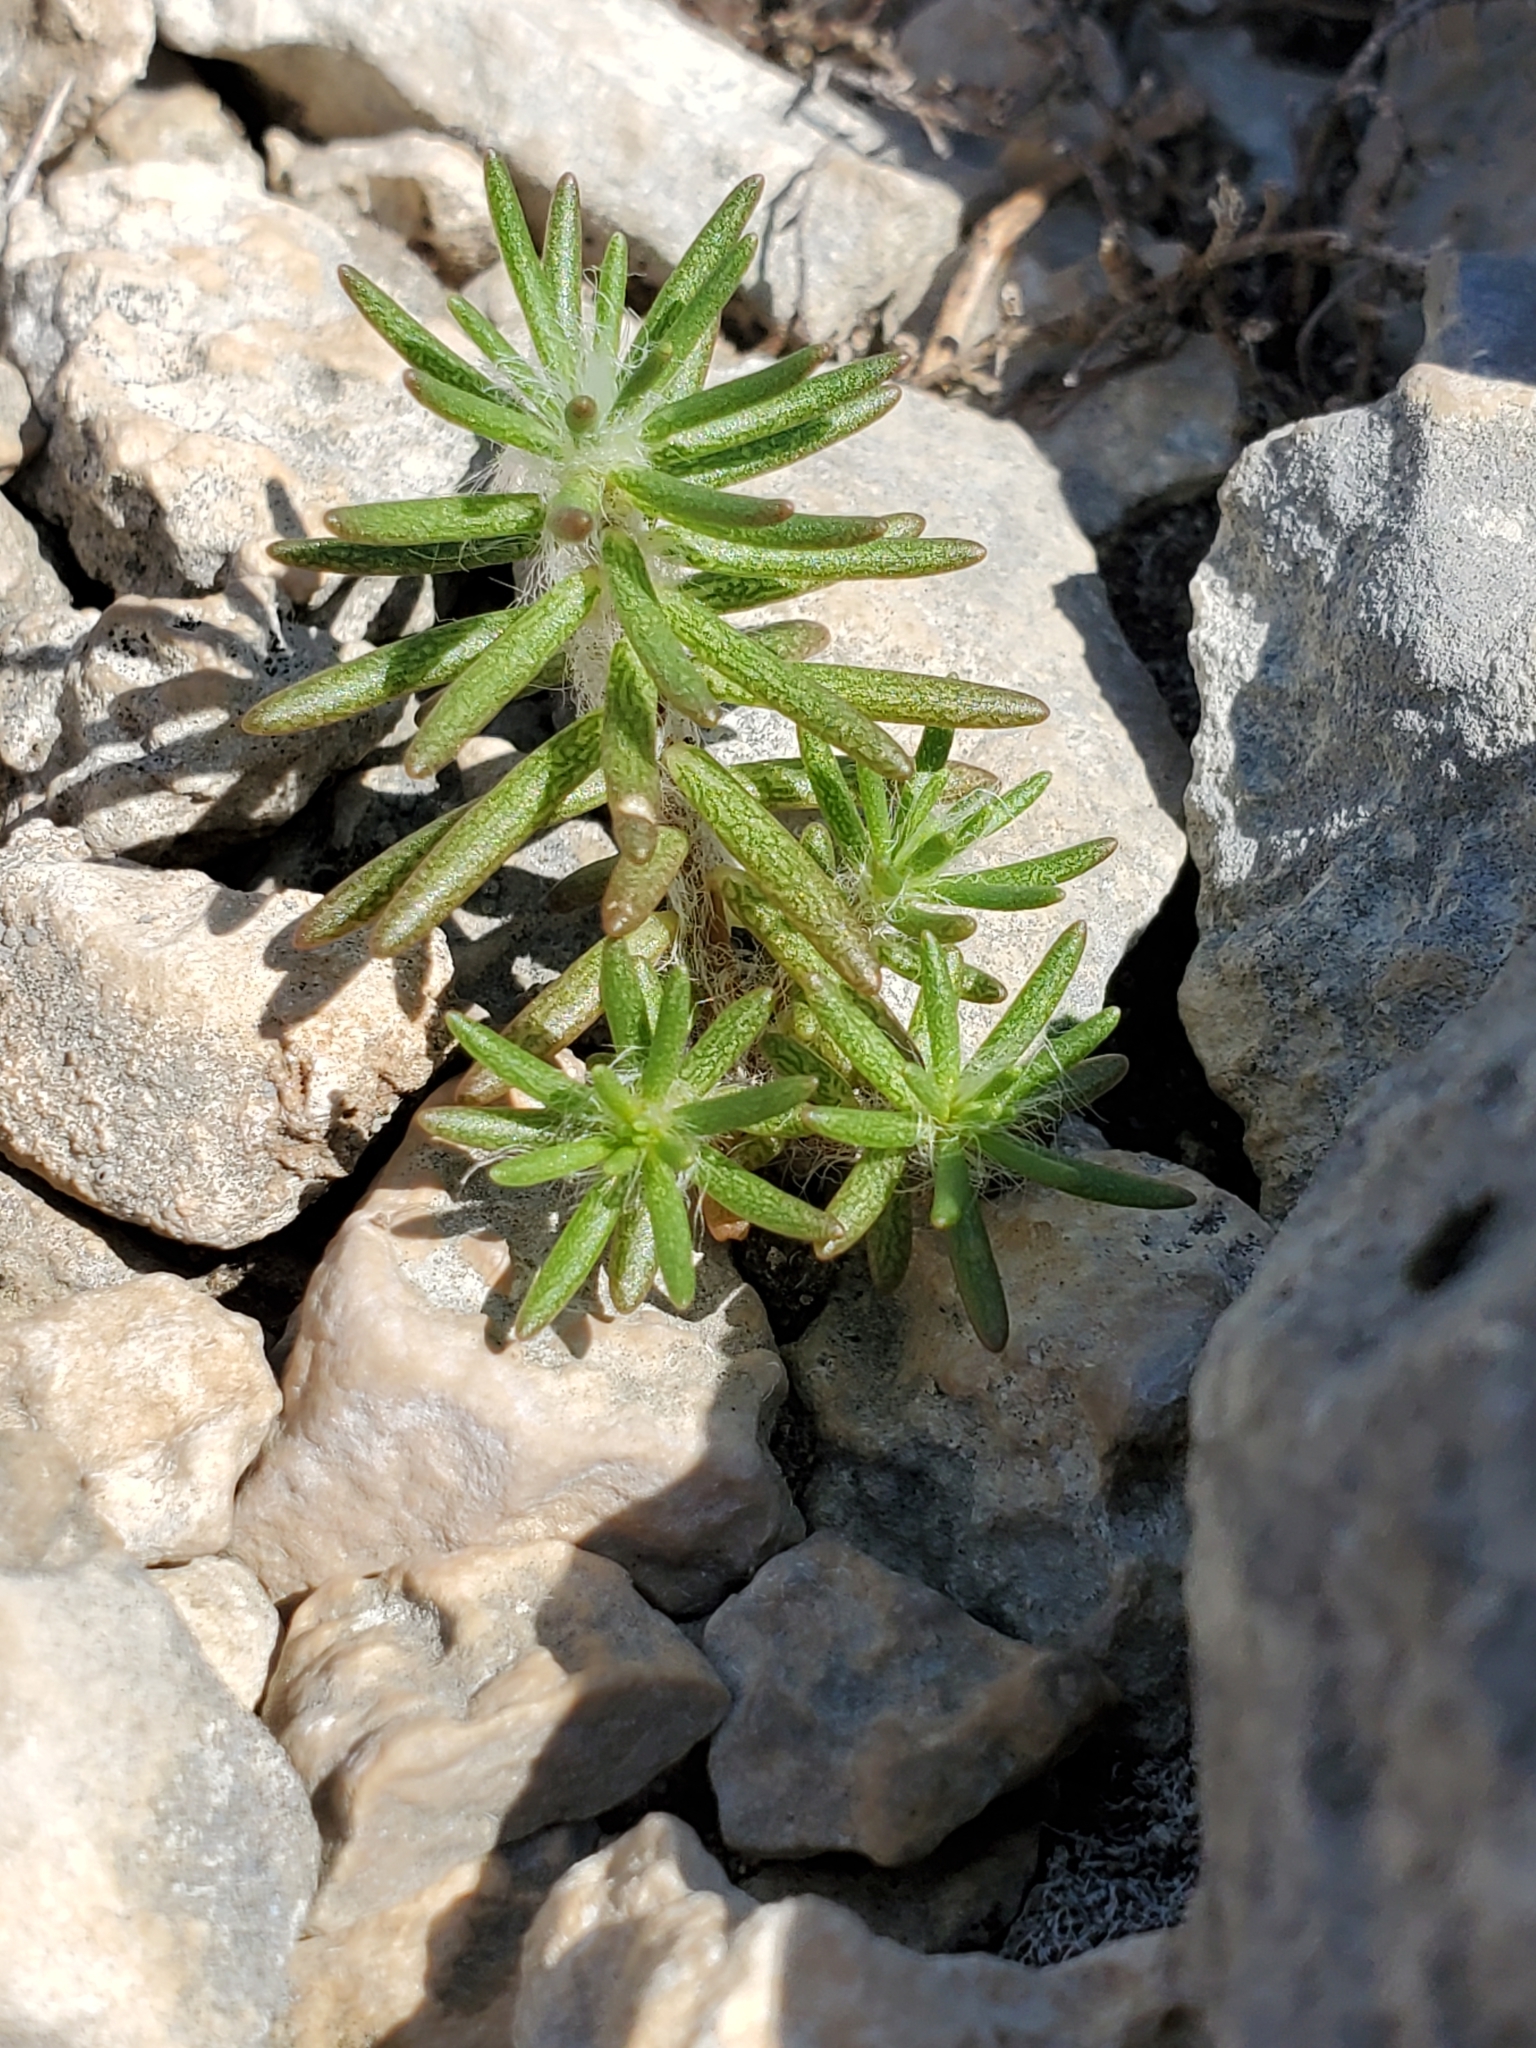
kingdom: Plantae
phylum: Tracheophyta
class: Magnoliopsida
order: Caryophyllales
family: Portulacaceae
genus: Portulaca
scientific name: Portulaca pilosa
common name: Kiss me quick
